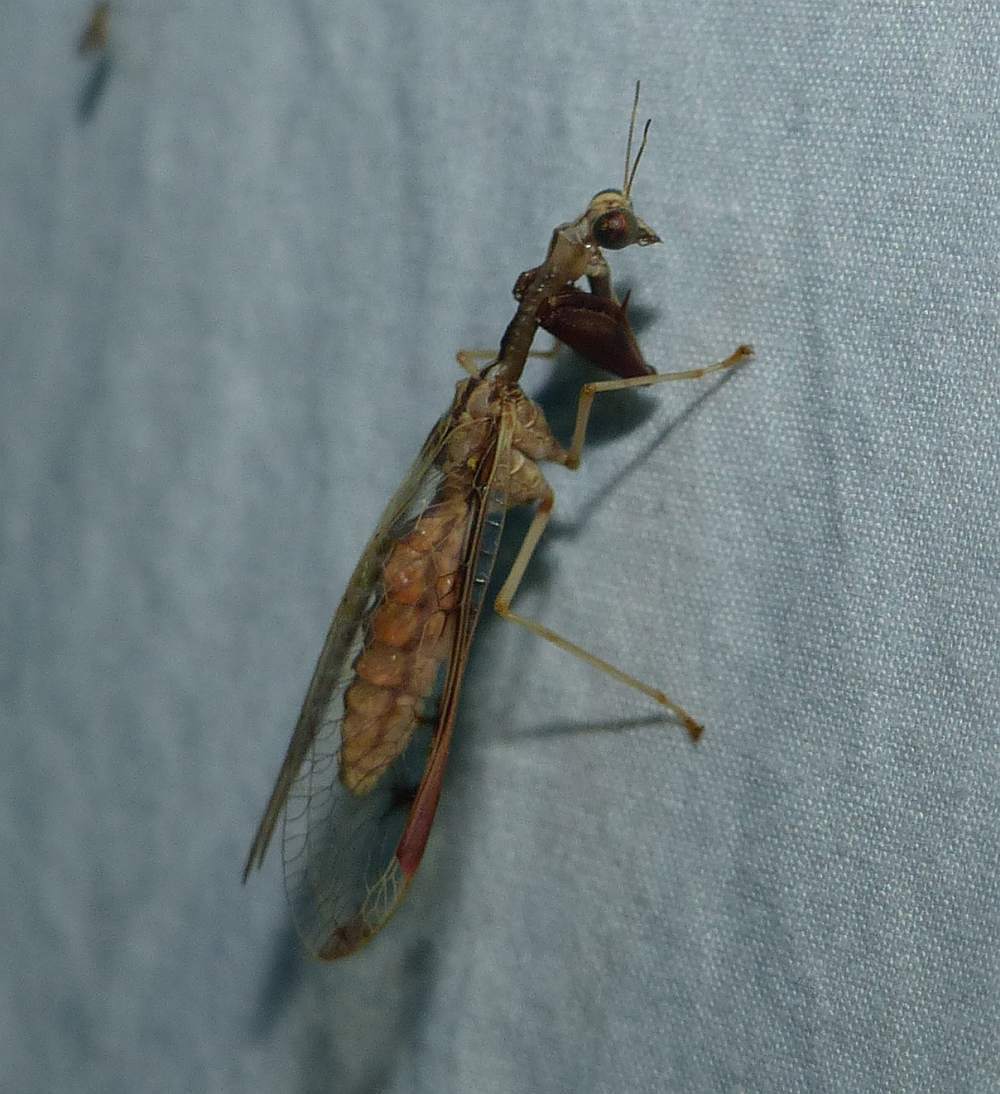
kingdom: Animalia
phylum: Arthropoda
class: Insecta
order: Neuroptera
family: Mantispidae
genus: Dicromantispa
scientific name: Dicromantispa interrupta
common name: Four-spotted mantidfly
